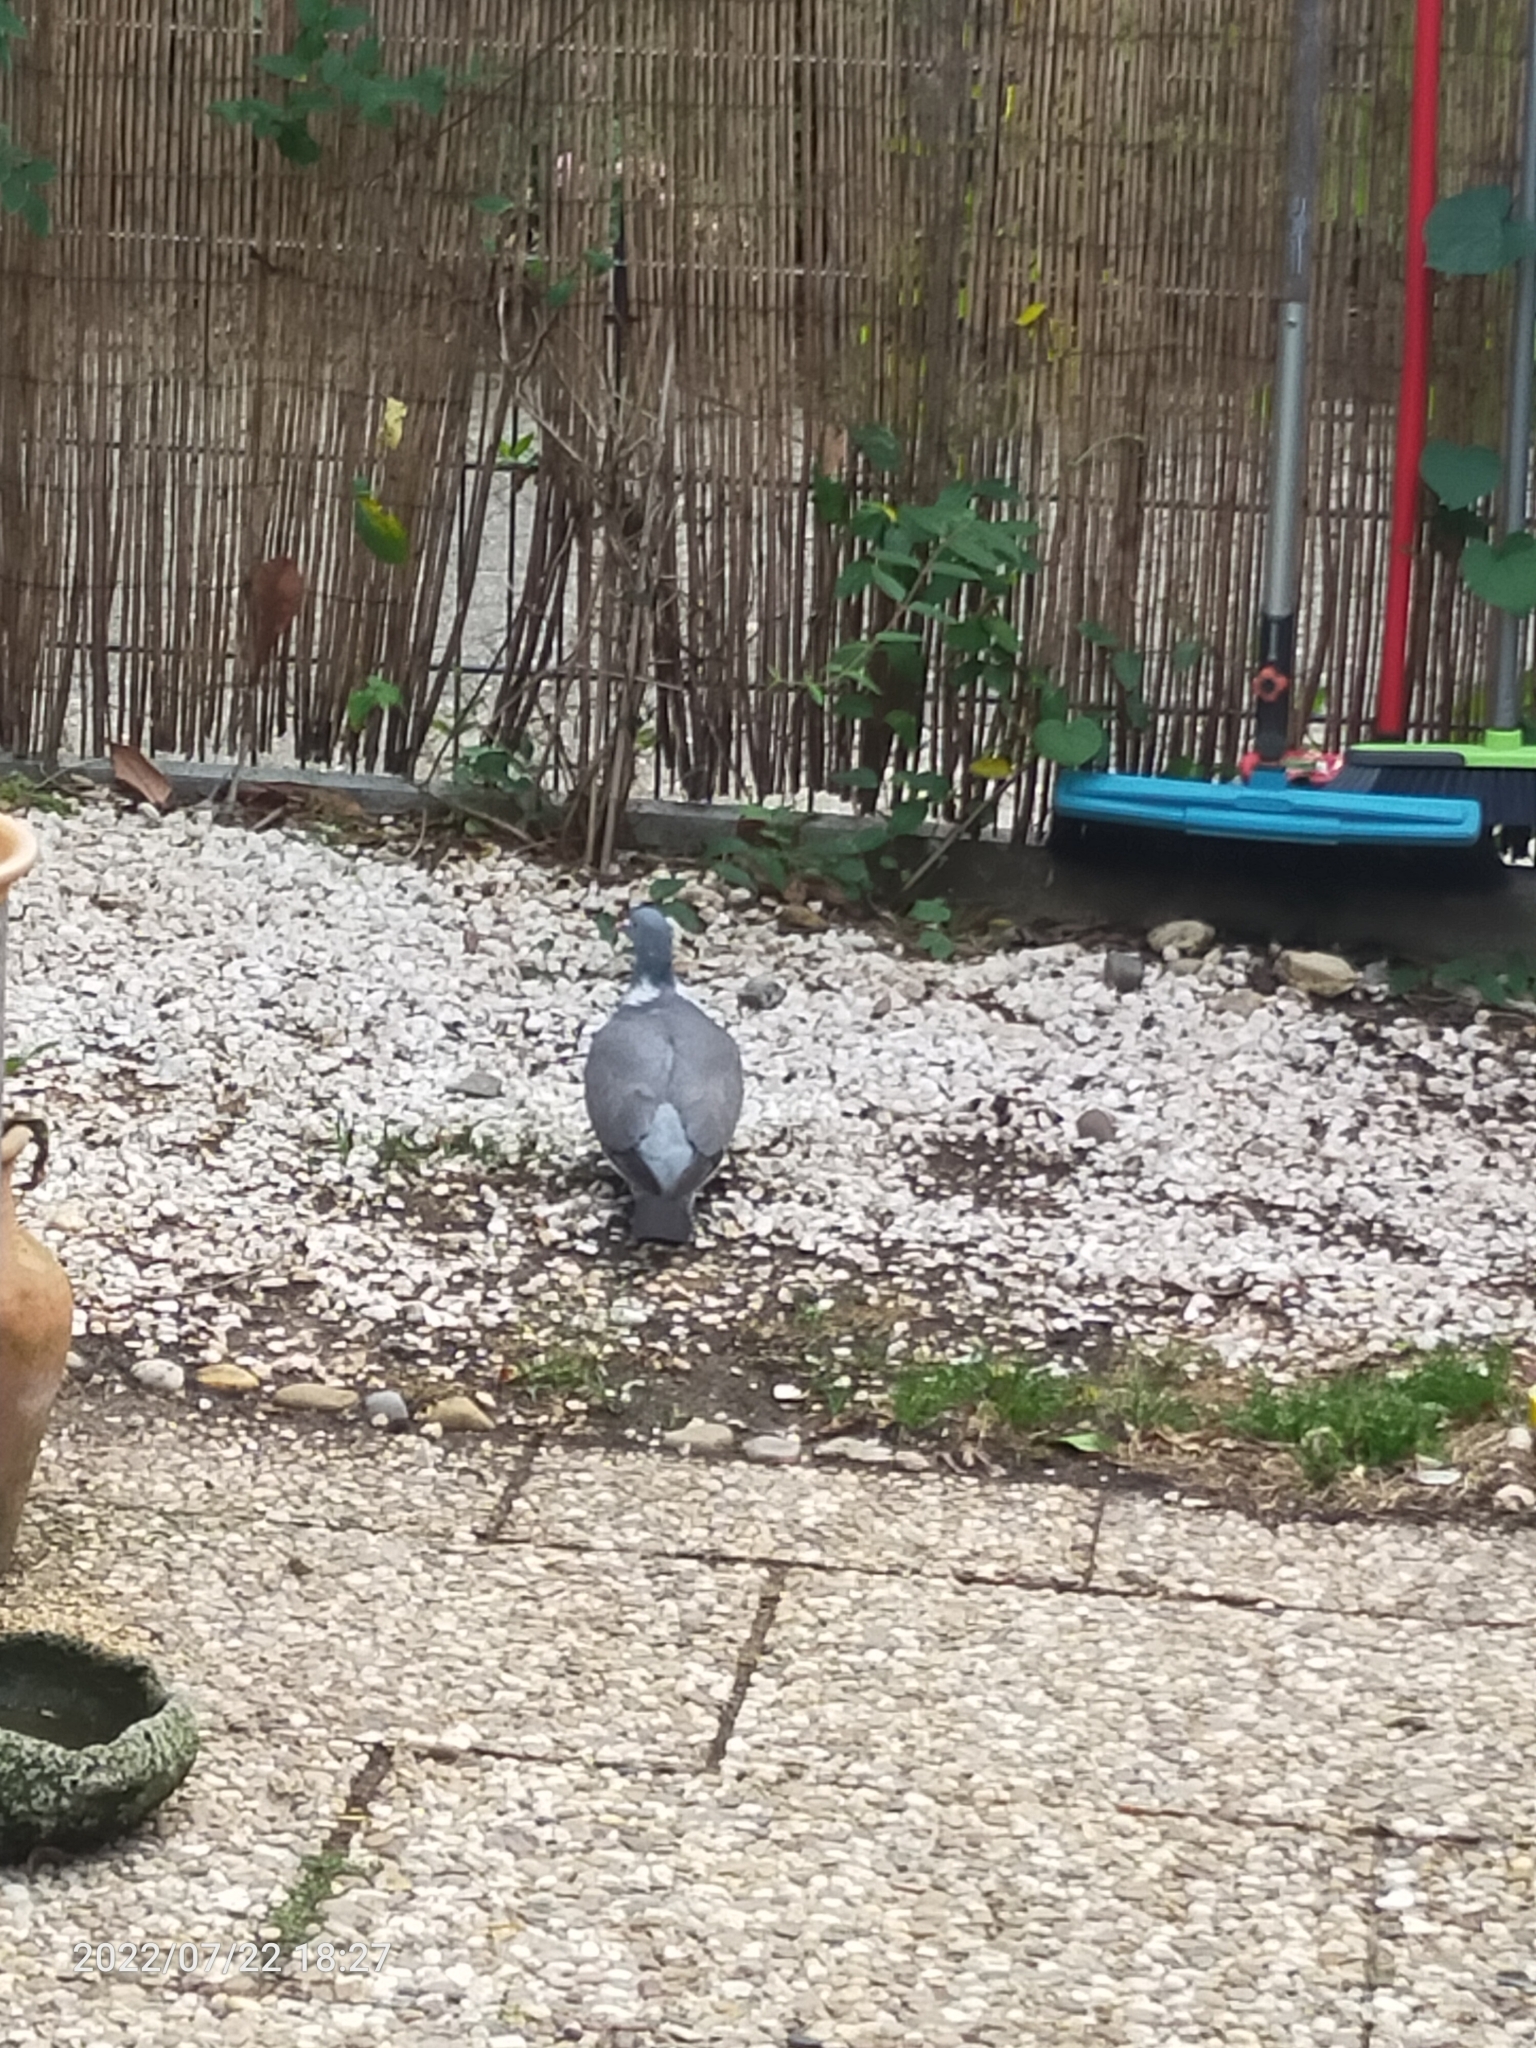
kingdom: Animalia
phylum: Chordata
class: Aves
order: Columbiformes
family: Columbidae
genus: Columba
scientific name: Columba palumbus
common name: Common wood pigeon
